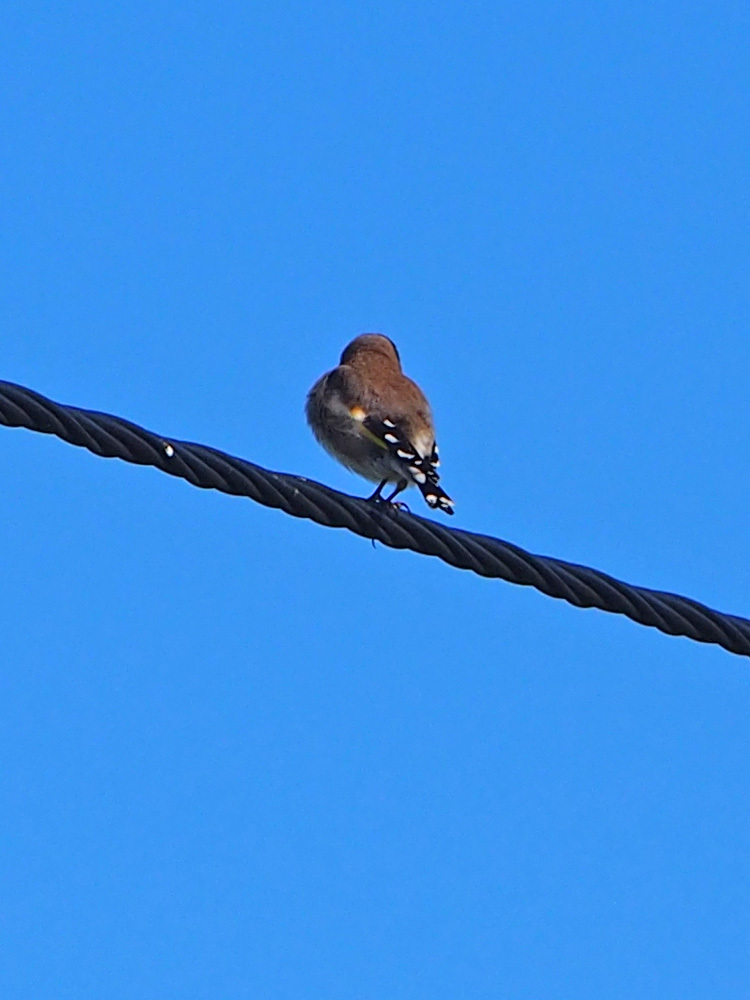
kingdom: Animalia
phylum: Chordata
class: Aves
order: Passeriformes
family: Fringillidae
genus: Carduelis
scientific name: Carduelis carduelis
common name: European goldfinch
